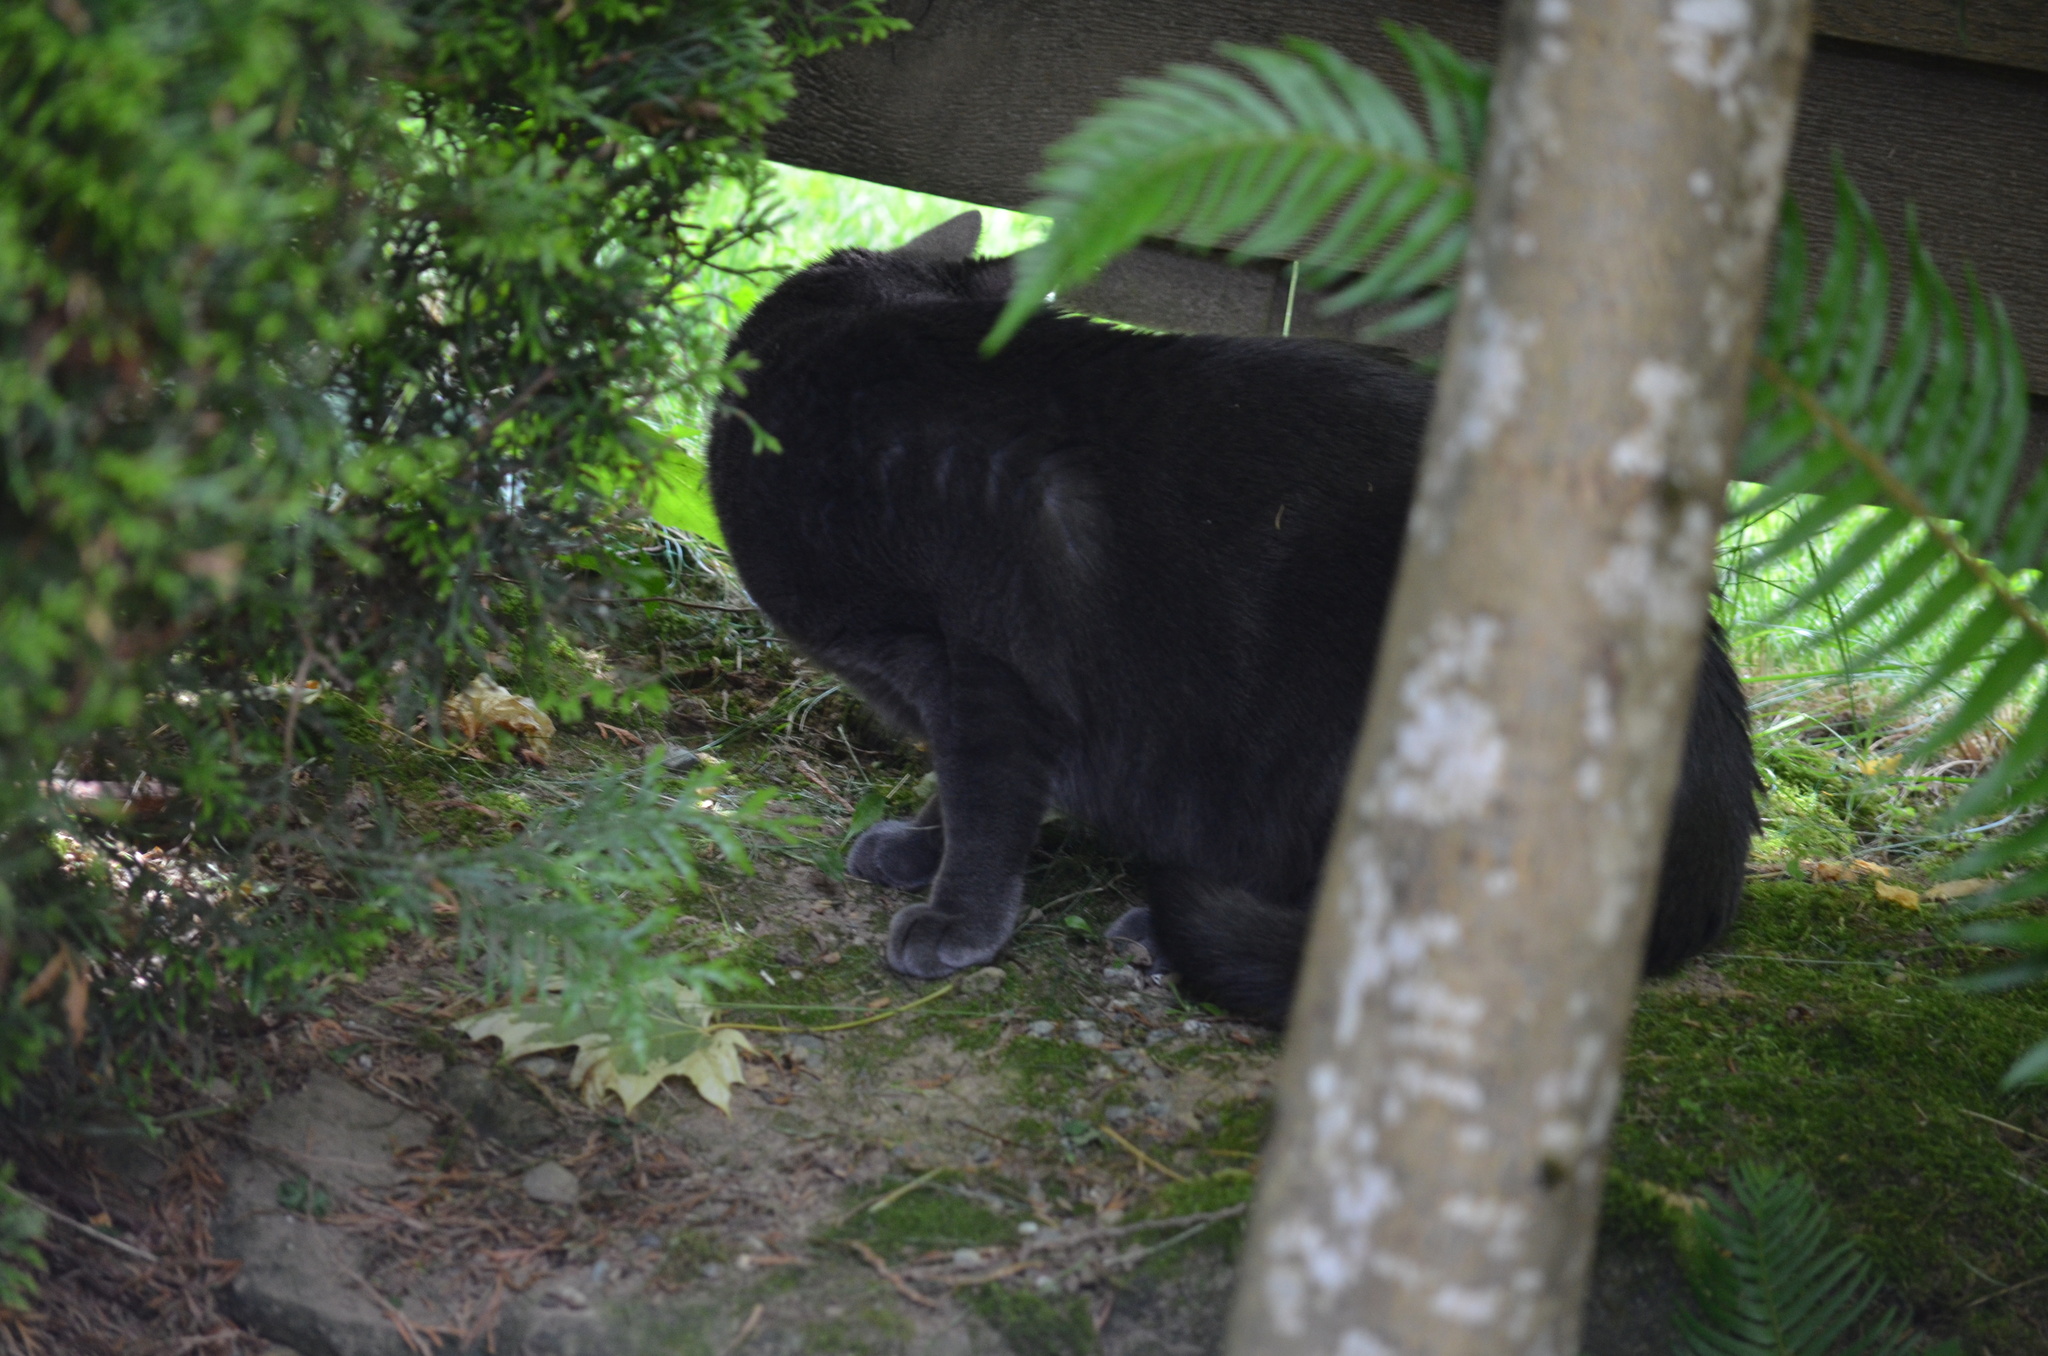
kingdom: Animalia
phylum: Chordata
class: Mammalia
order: Carnivora
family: Felidae
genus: Felis
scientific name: Felis catus
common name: Domestic cat
